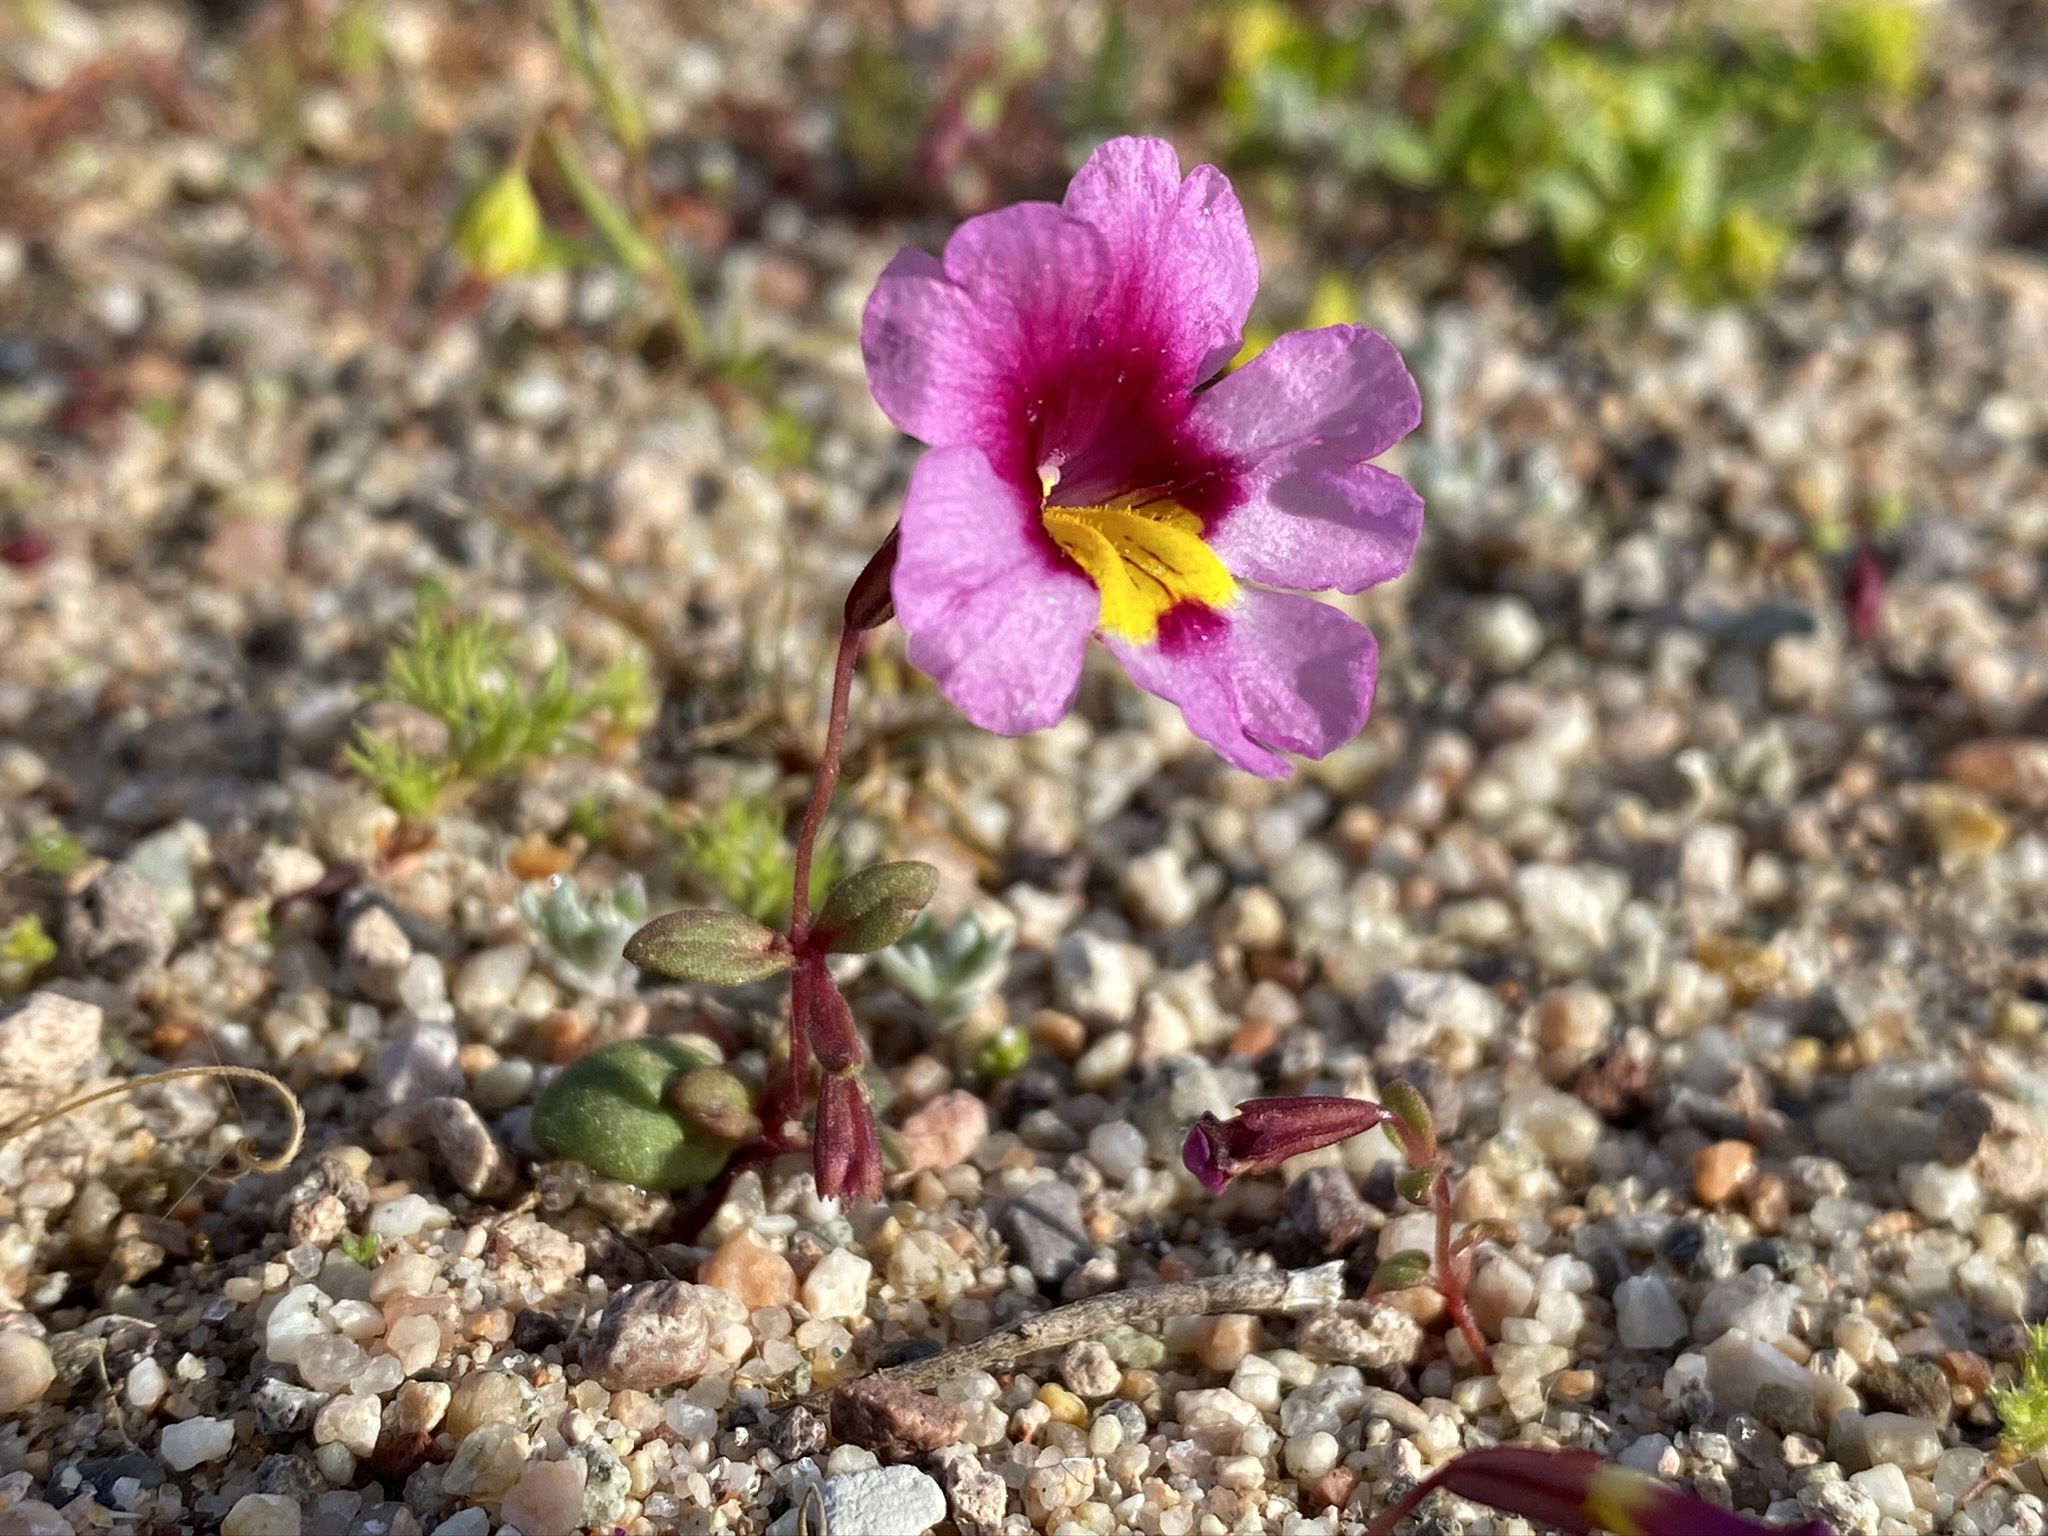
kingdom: Plantae
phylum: Tracheophyta
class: Magnoliopsida
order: Lamiales
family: Phrymaceae
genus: Erythranthe
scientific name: Erythranthe rhodopetra
